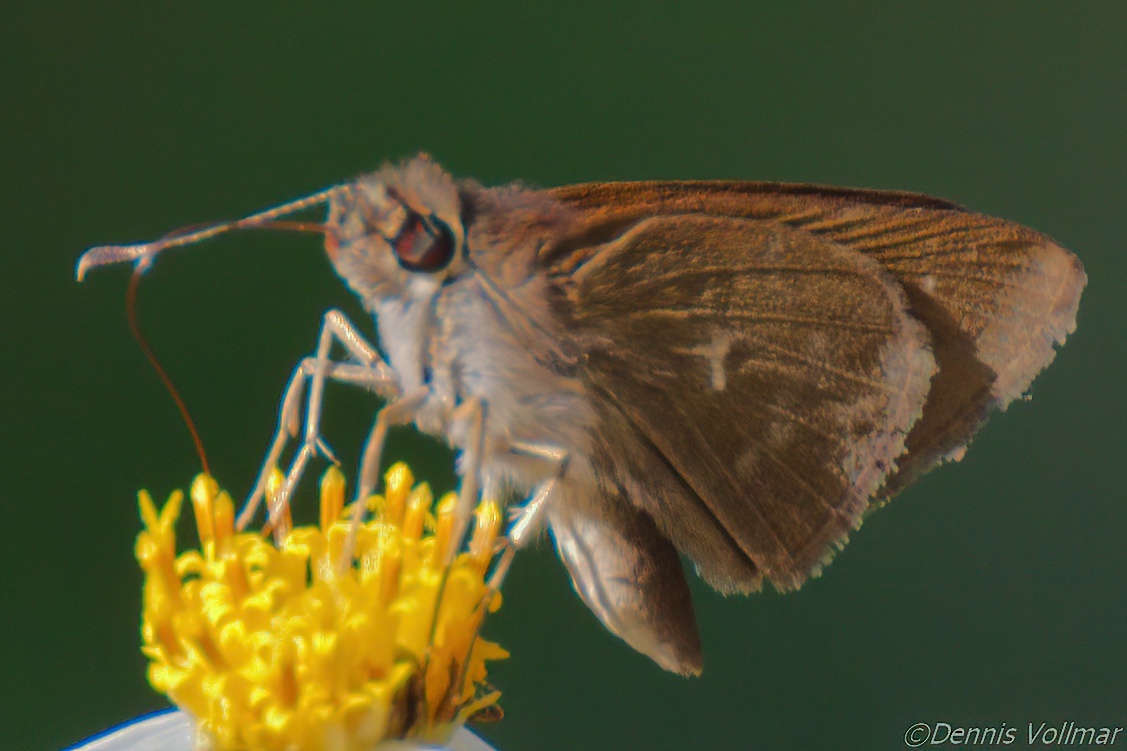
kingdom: Animalia
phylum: Arthropoda
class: Insecta
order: Lepidoptera
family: Hesperiidae
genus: Cymaenes
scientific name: Cymaenes tripunctus
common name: Dingy dotted skipper
